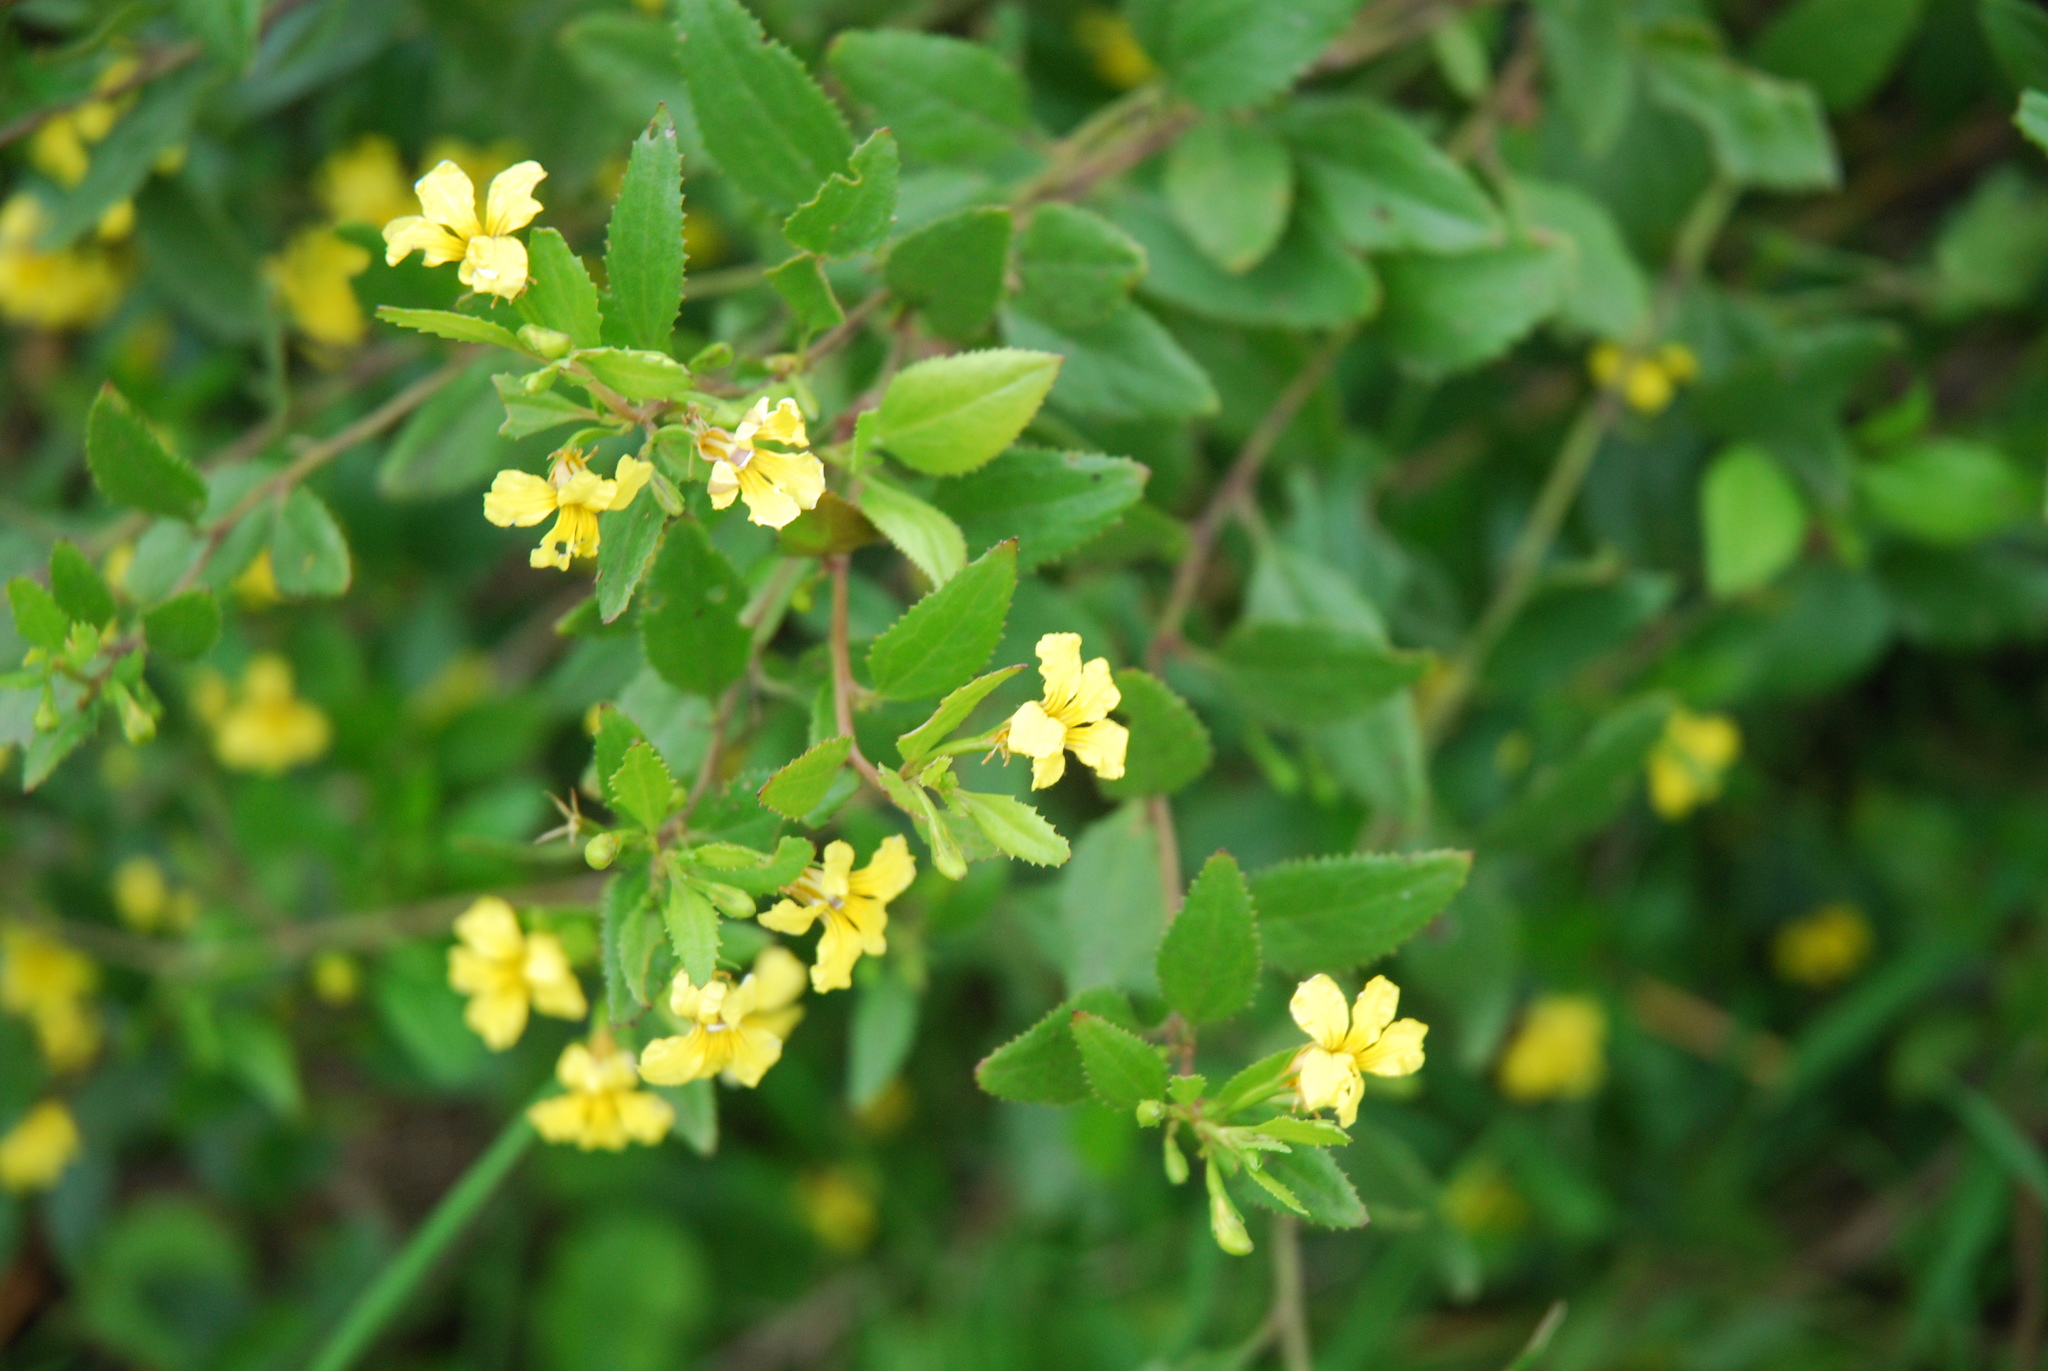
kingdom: Plantae
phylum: Tracheophyta
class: Magnoliopsida
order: Asterales
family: Goodeniaceae
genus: Goodenia
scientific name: Goodenia ovata
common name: Hop goodenia
